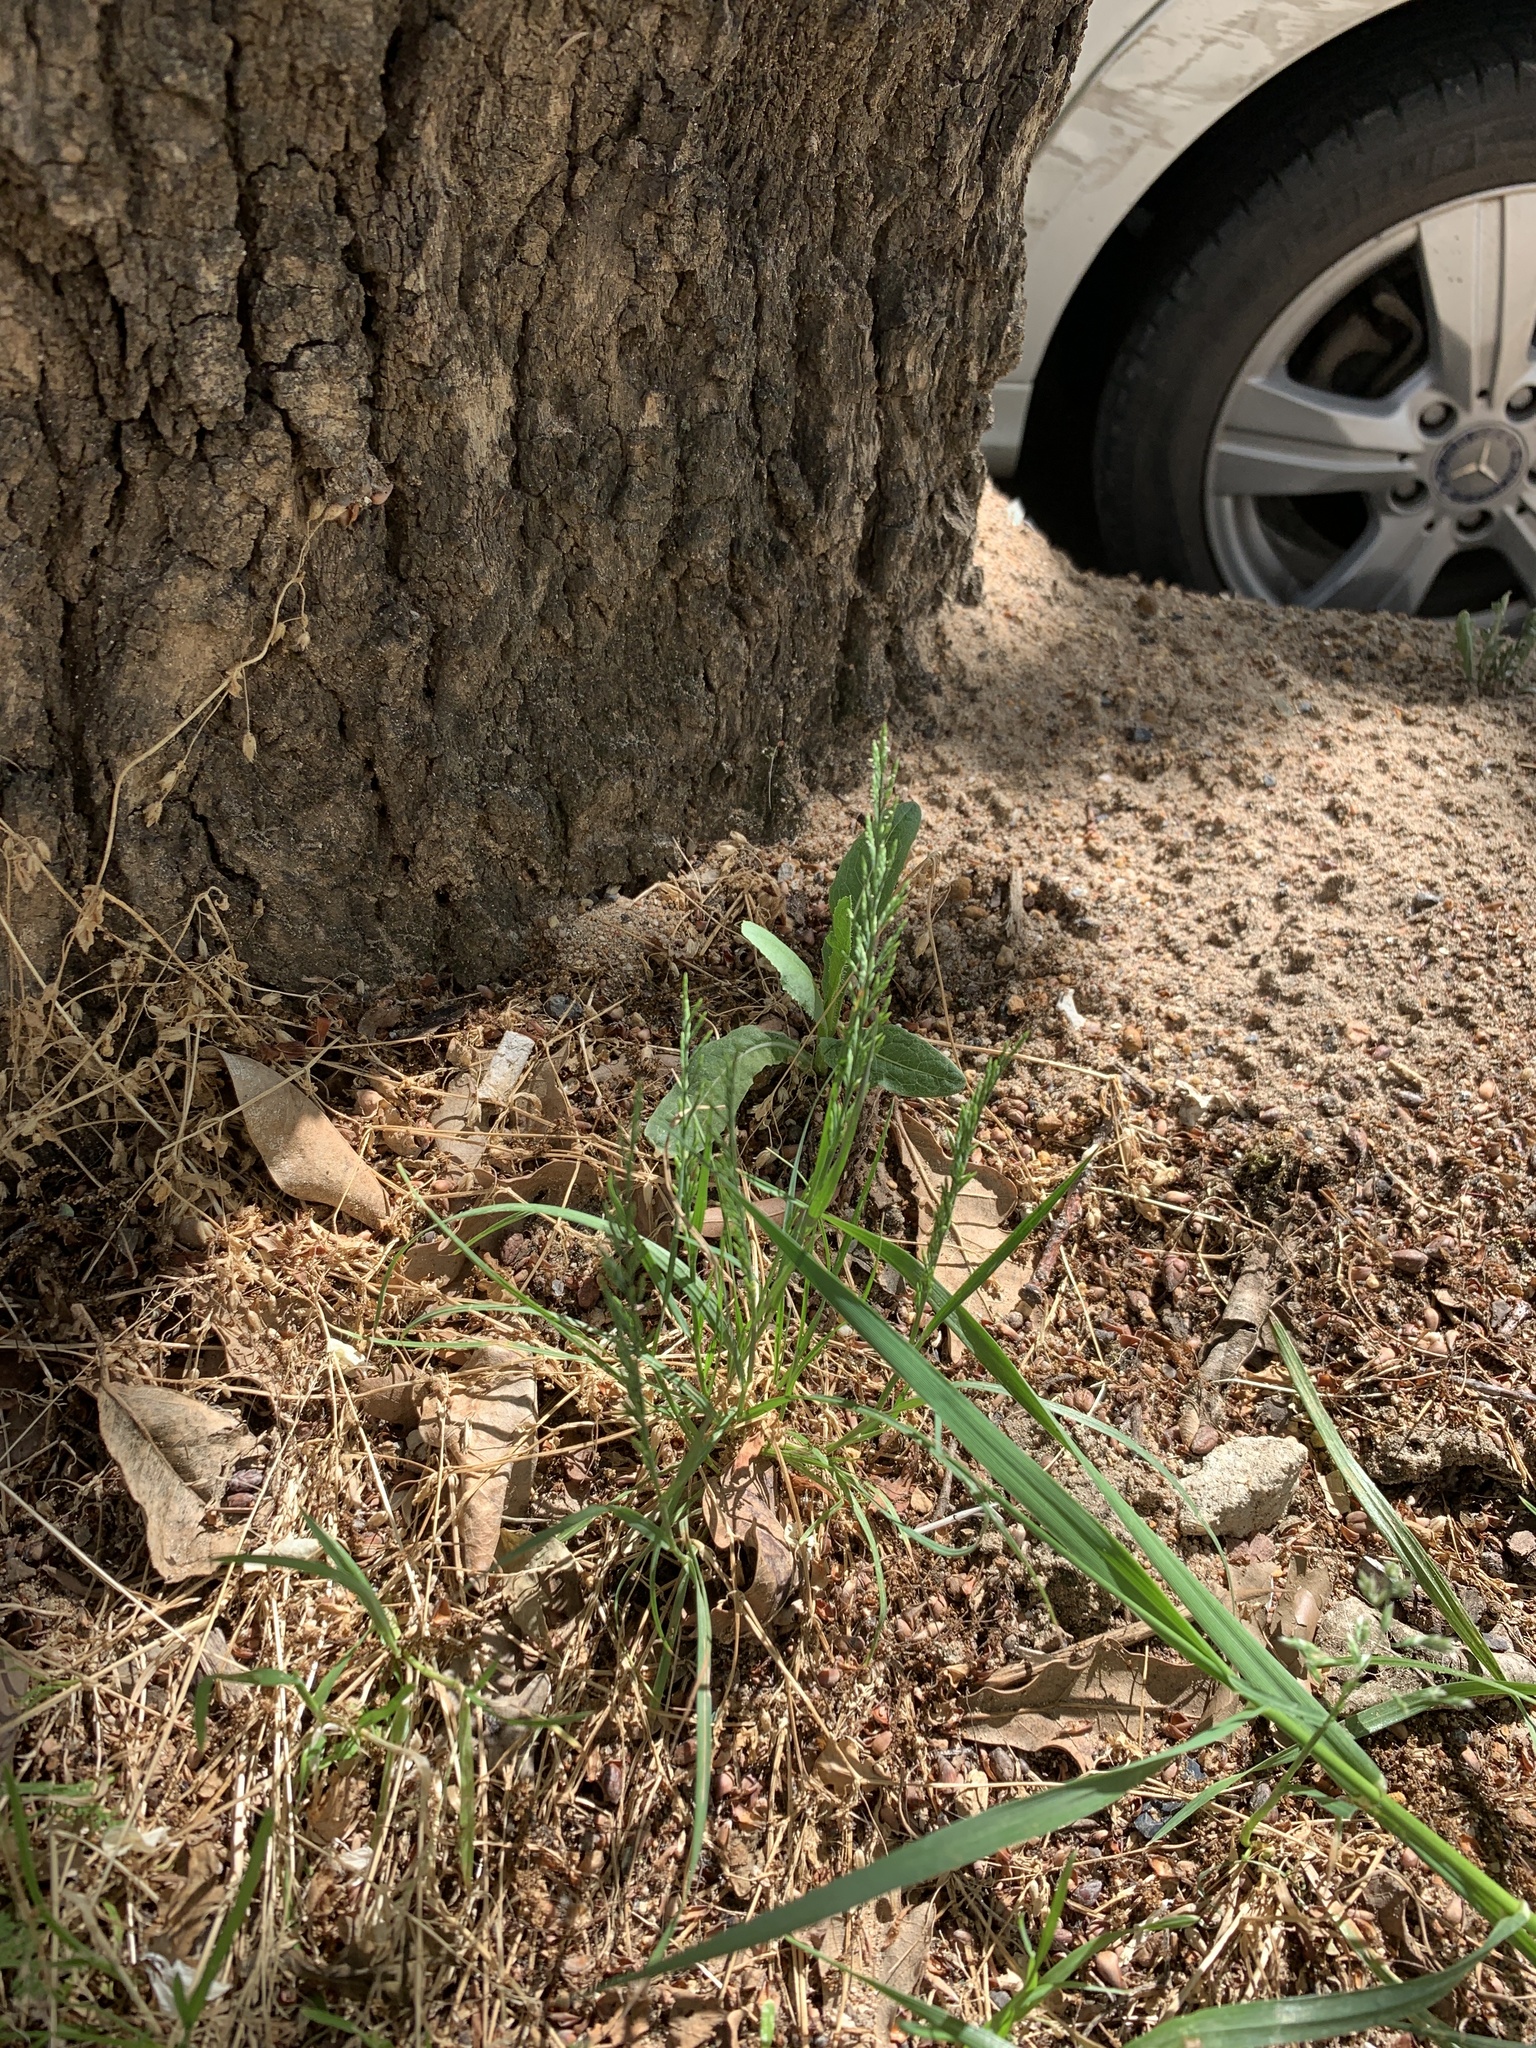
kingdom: Plantae
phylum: Tracheophyta
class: Liliopsida
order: Poales
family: Poaceae
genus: Catapodium
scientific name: Catapodium rigidum
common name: Fern-grass
